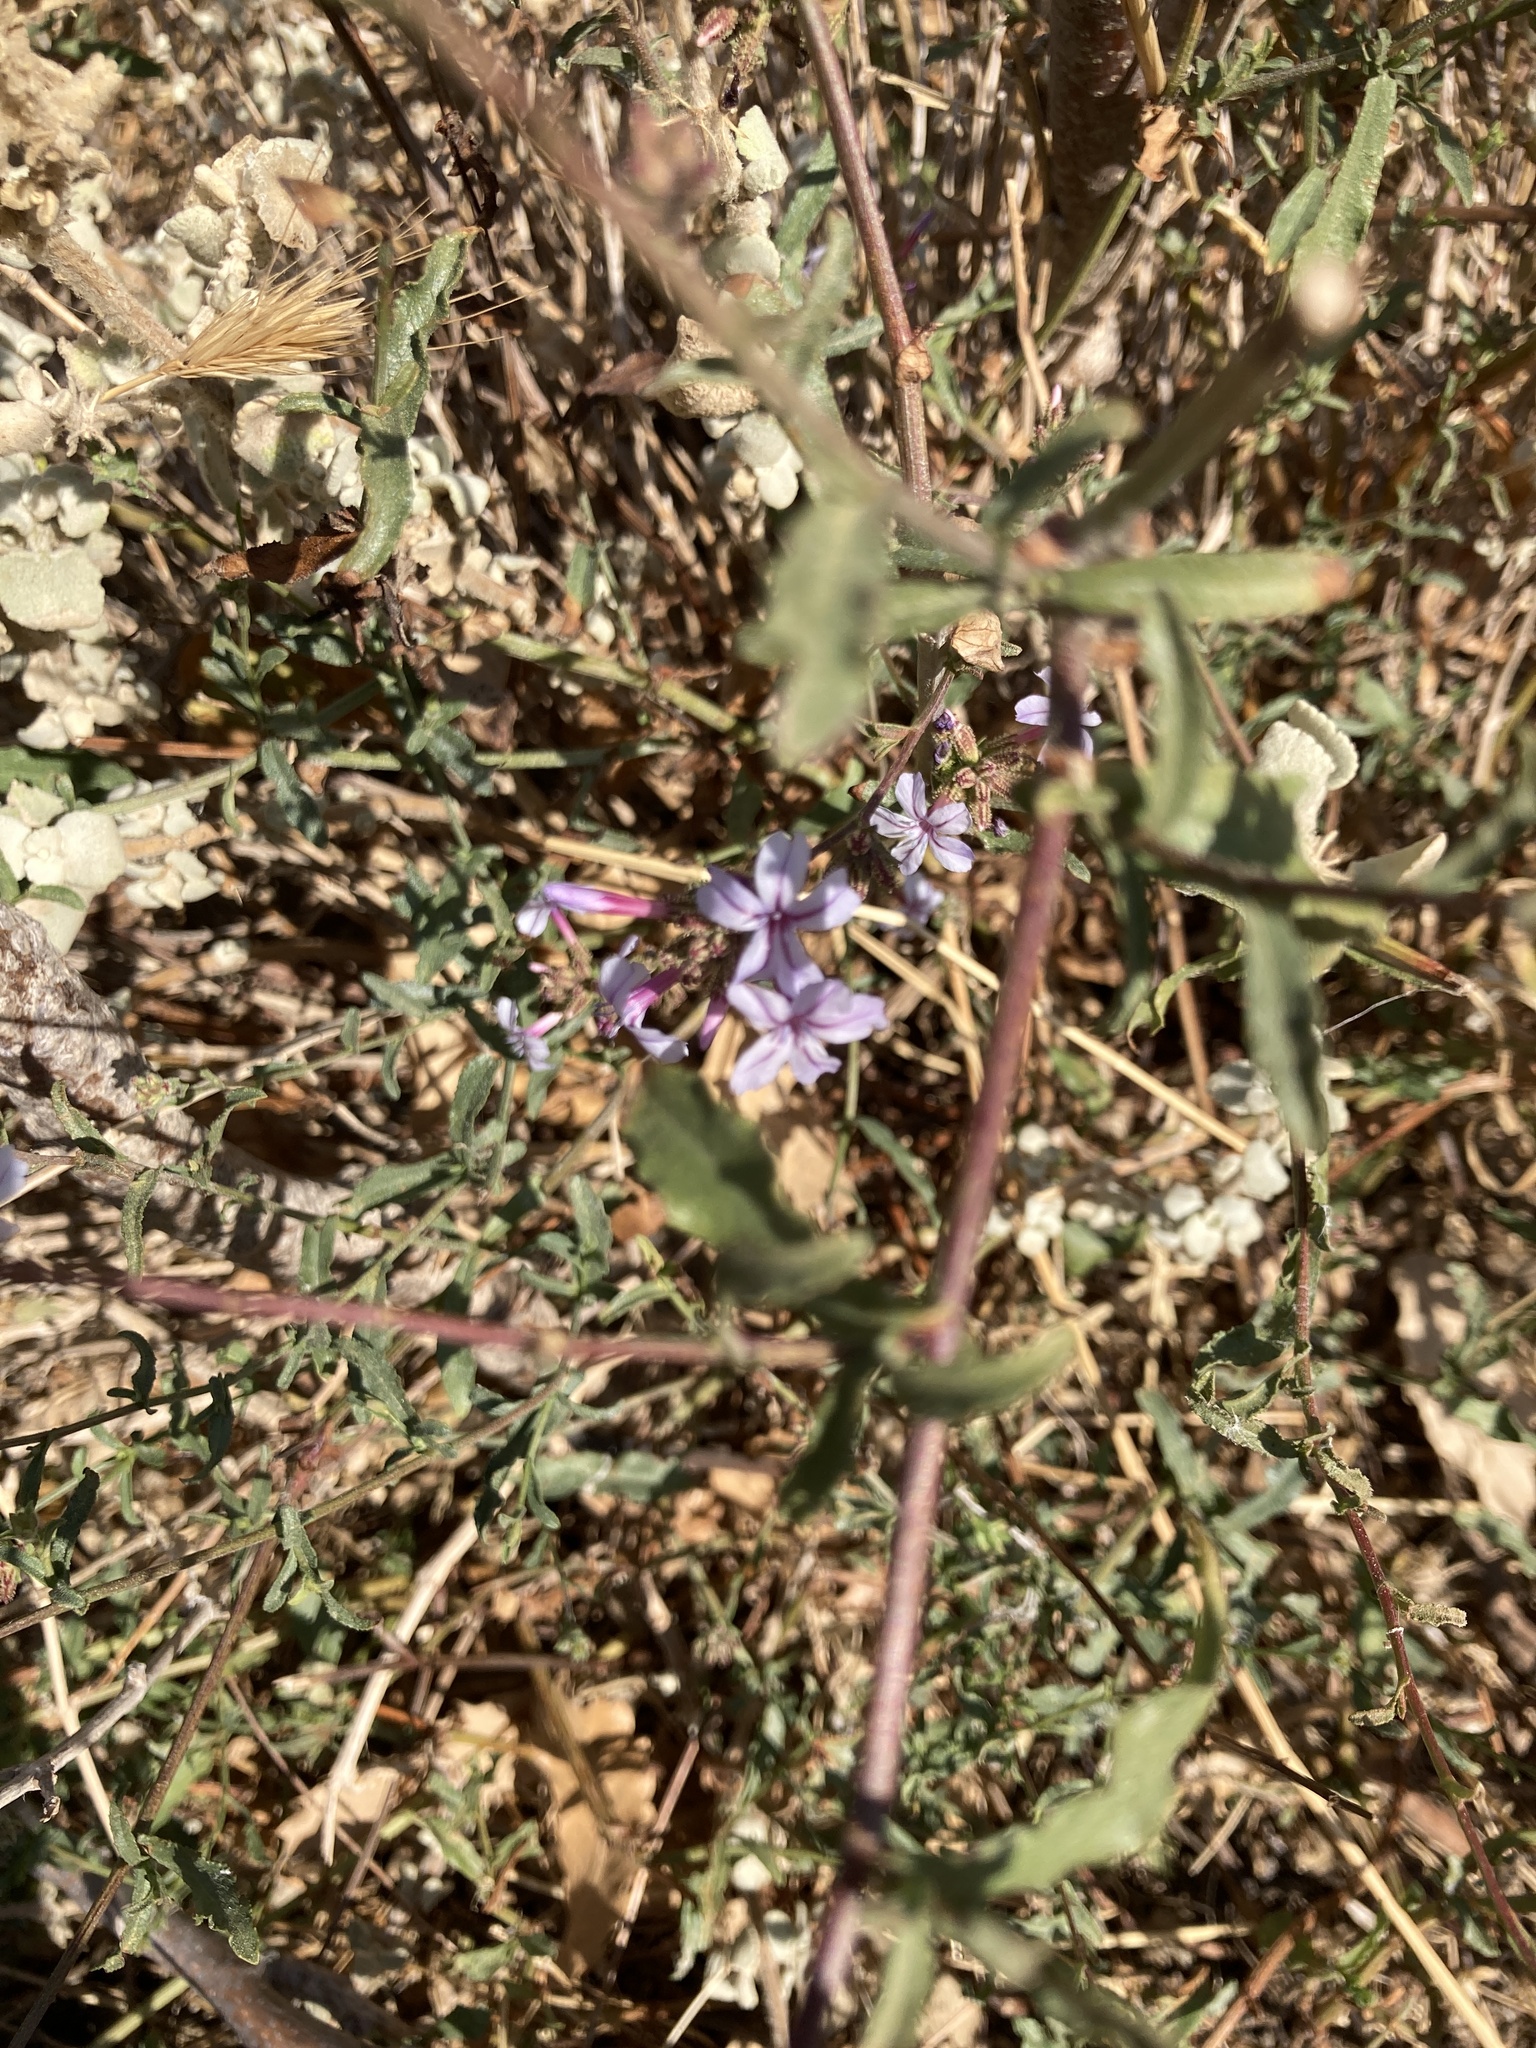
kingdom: Plantae
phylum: Tracheophyta
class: Magnoliopsida
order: Caryophyllales
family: Plumbaginaceae
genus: Plumbago
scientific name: Plumbago europaea
